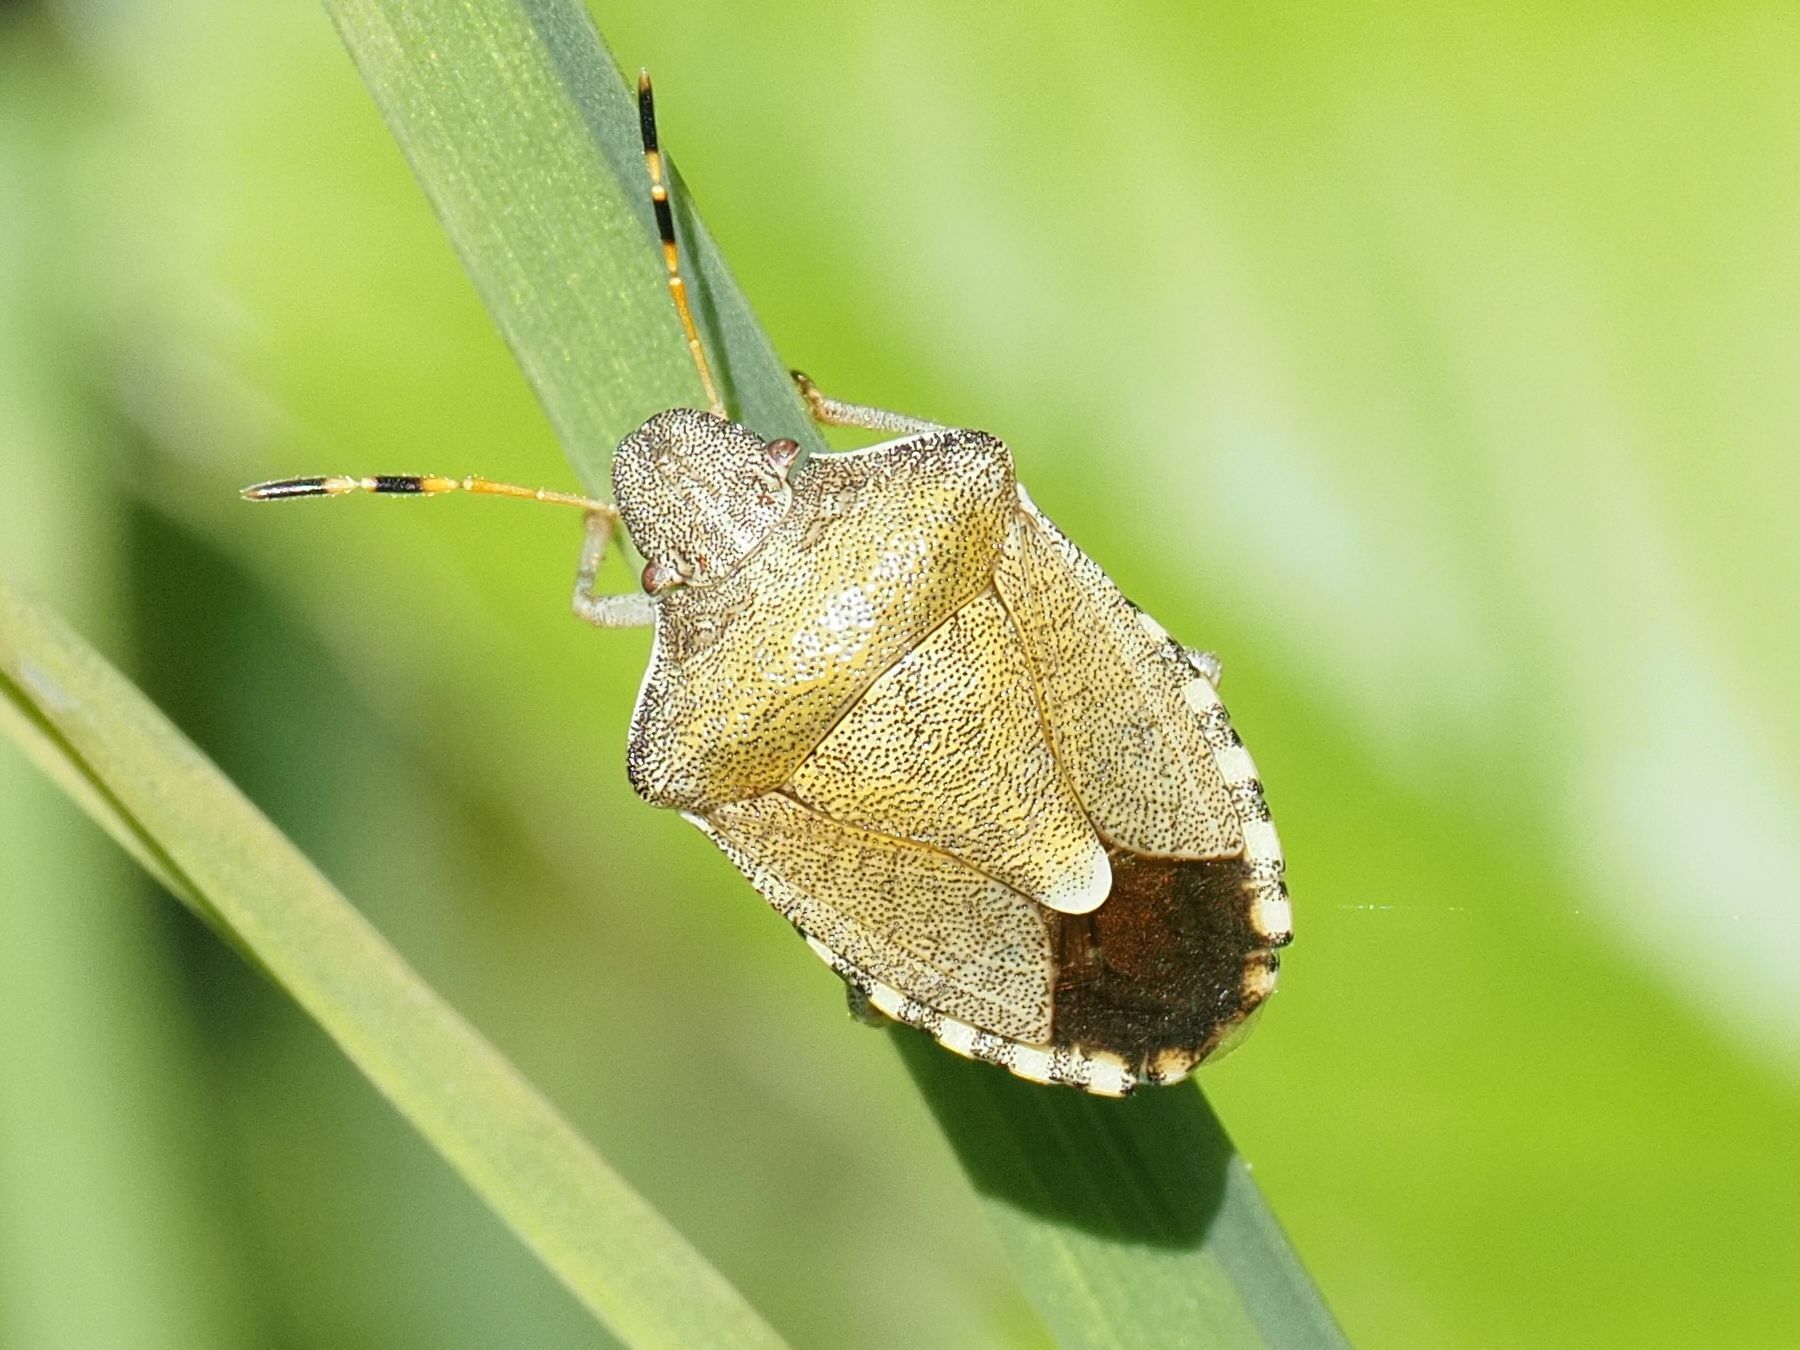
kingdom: Animalia
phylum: Arthropoda
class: Insecta
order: Hemiptera
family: Pentatomidae
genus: Holcostethus
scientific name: Holcostethus strictus
